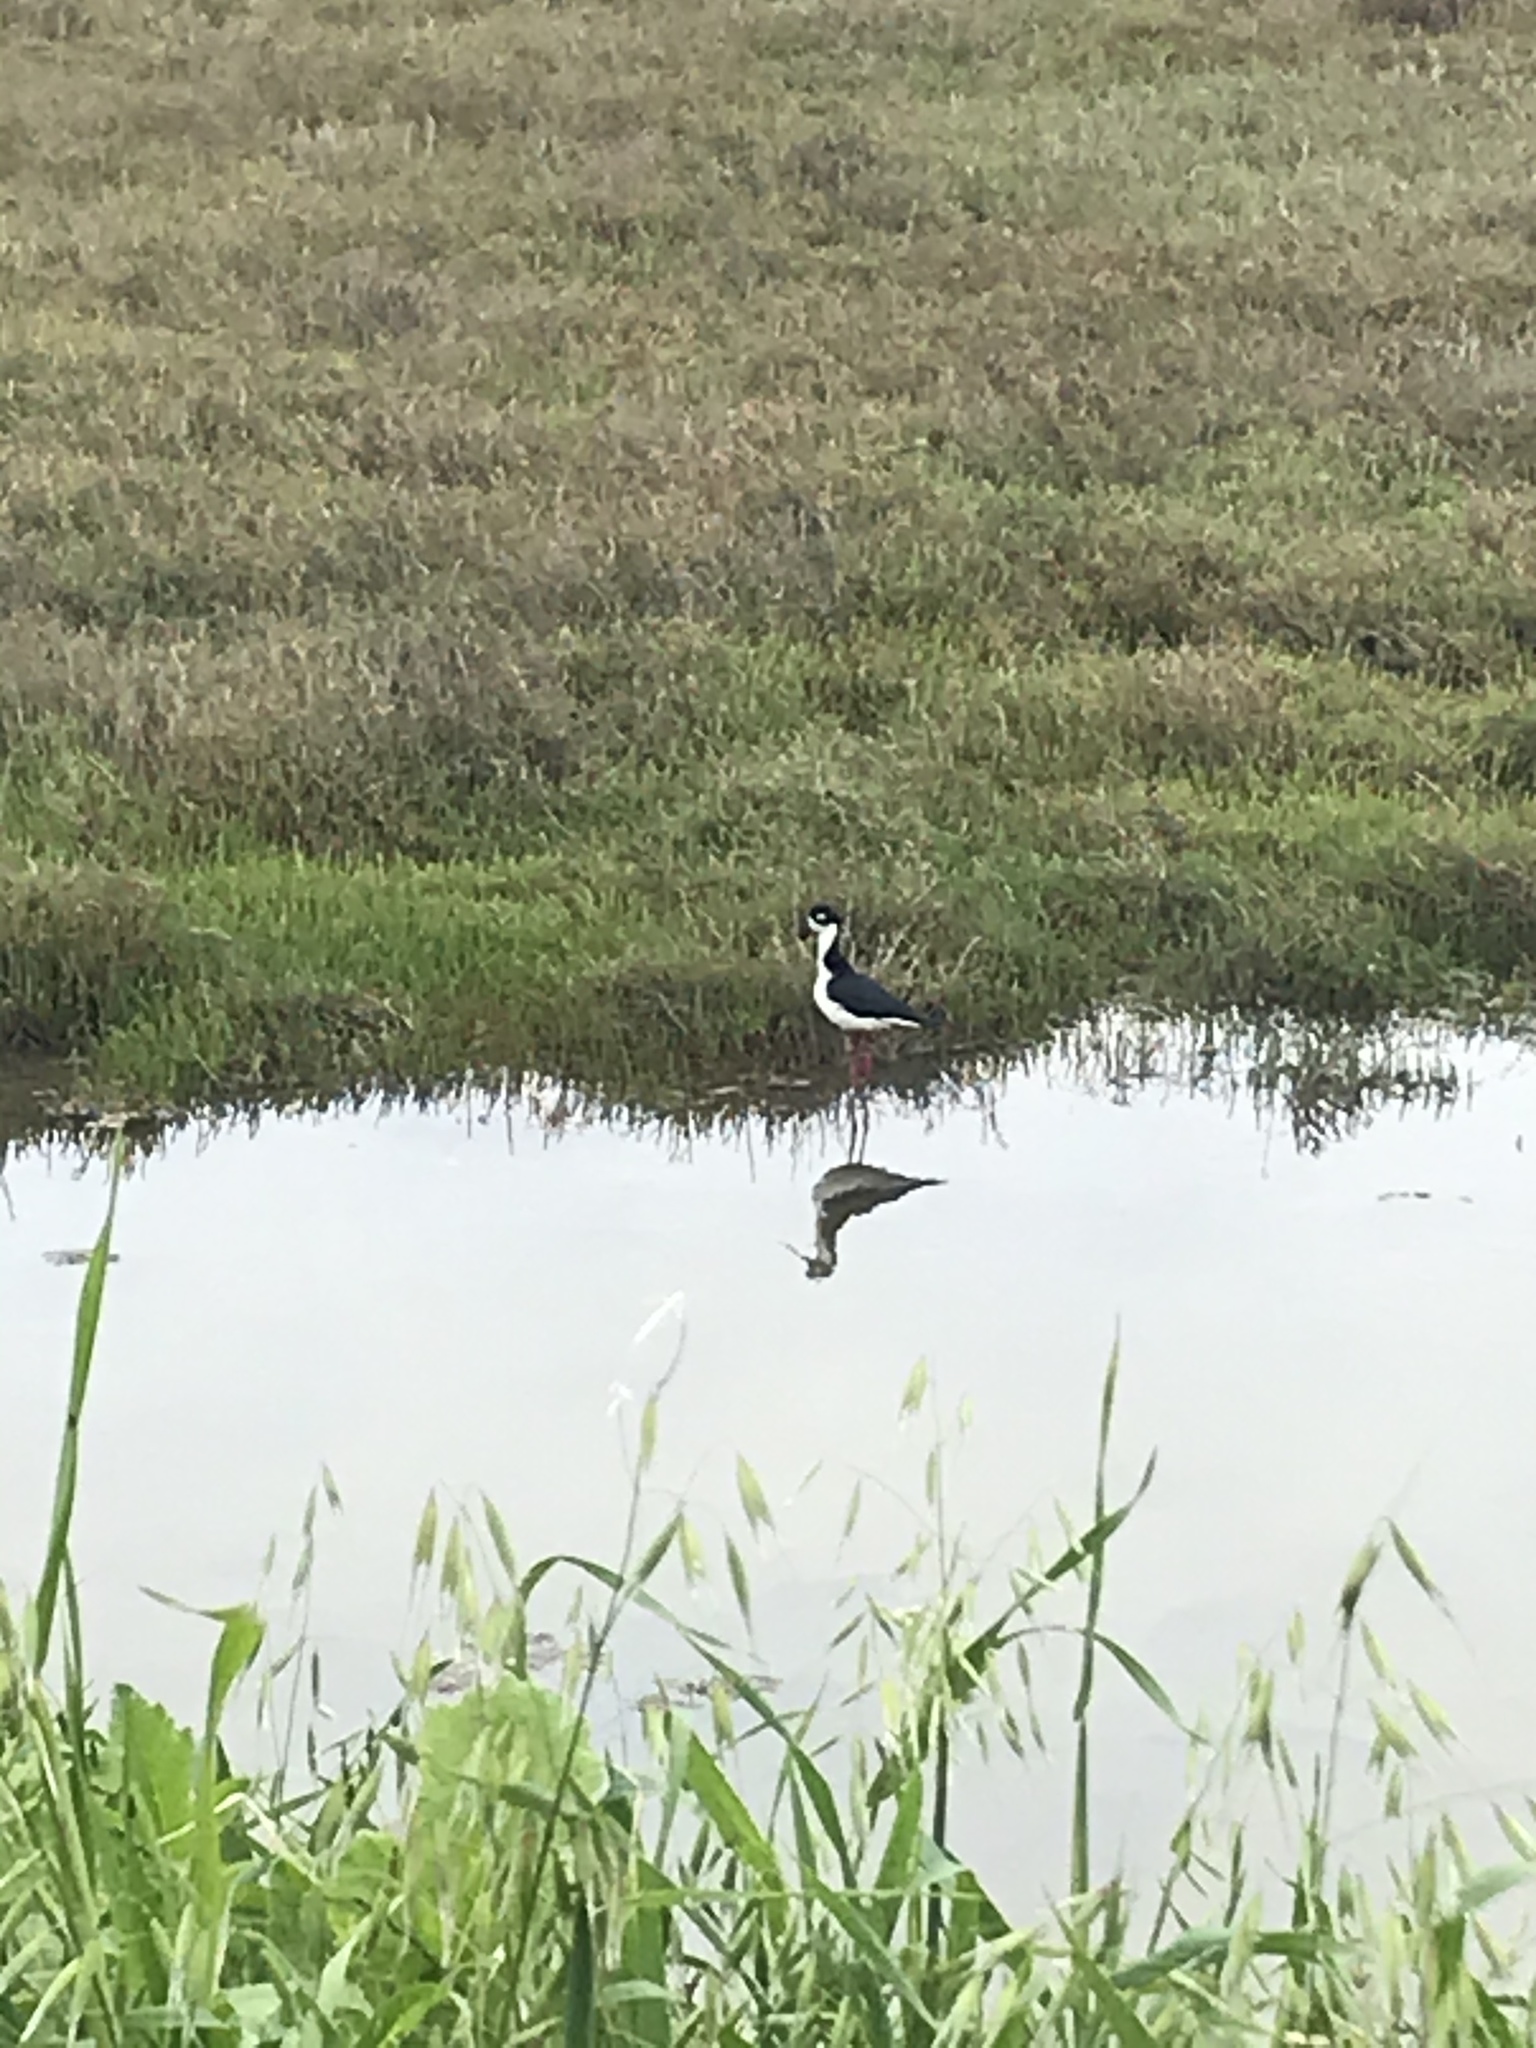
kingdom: Animalia
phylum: Chordata
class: Aves
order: Charadriiformes
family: Recurvirostridae
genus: Himantopus
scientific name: Himantopus mexicanus
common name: Black-necked stilt
